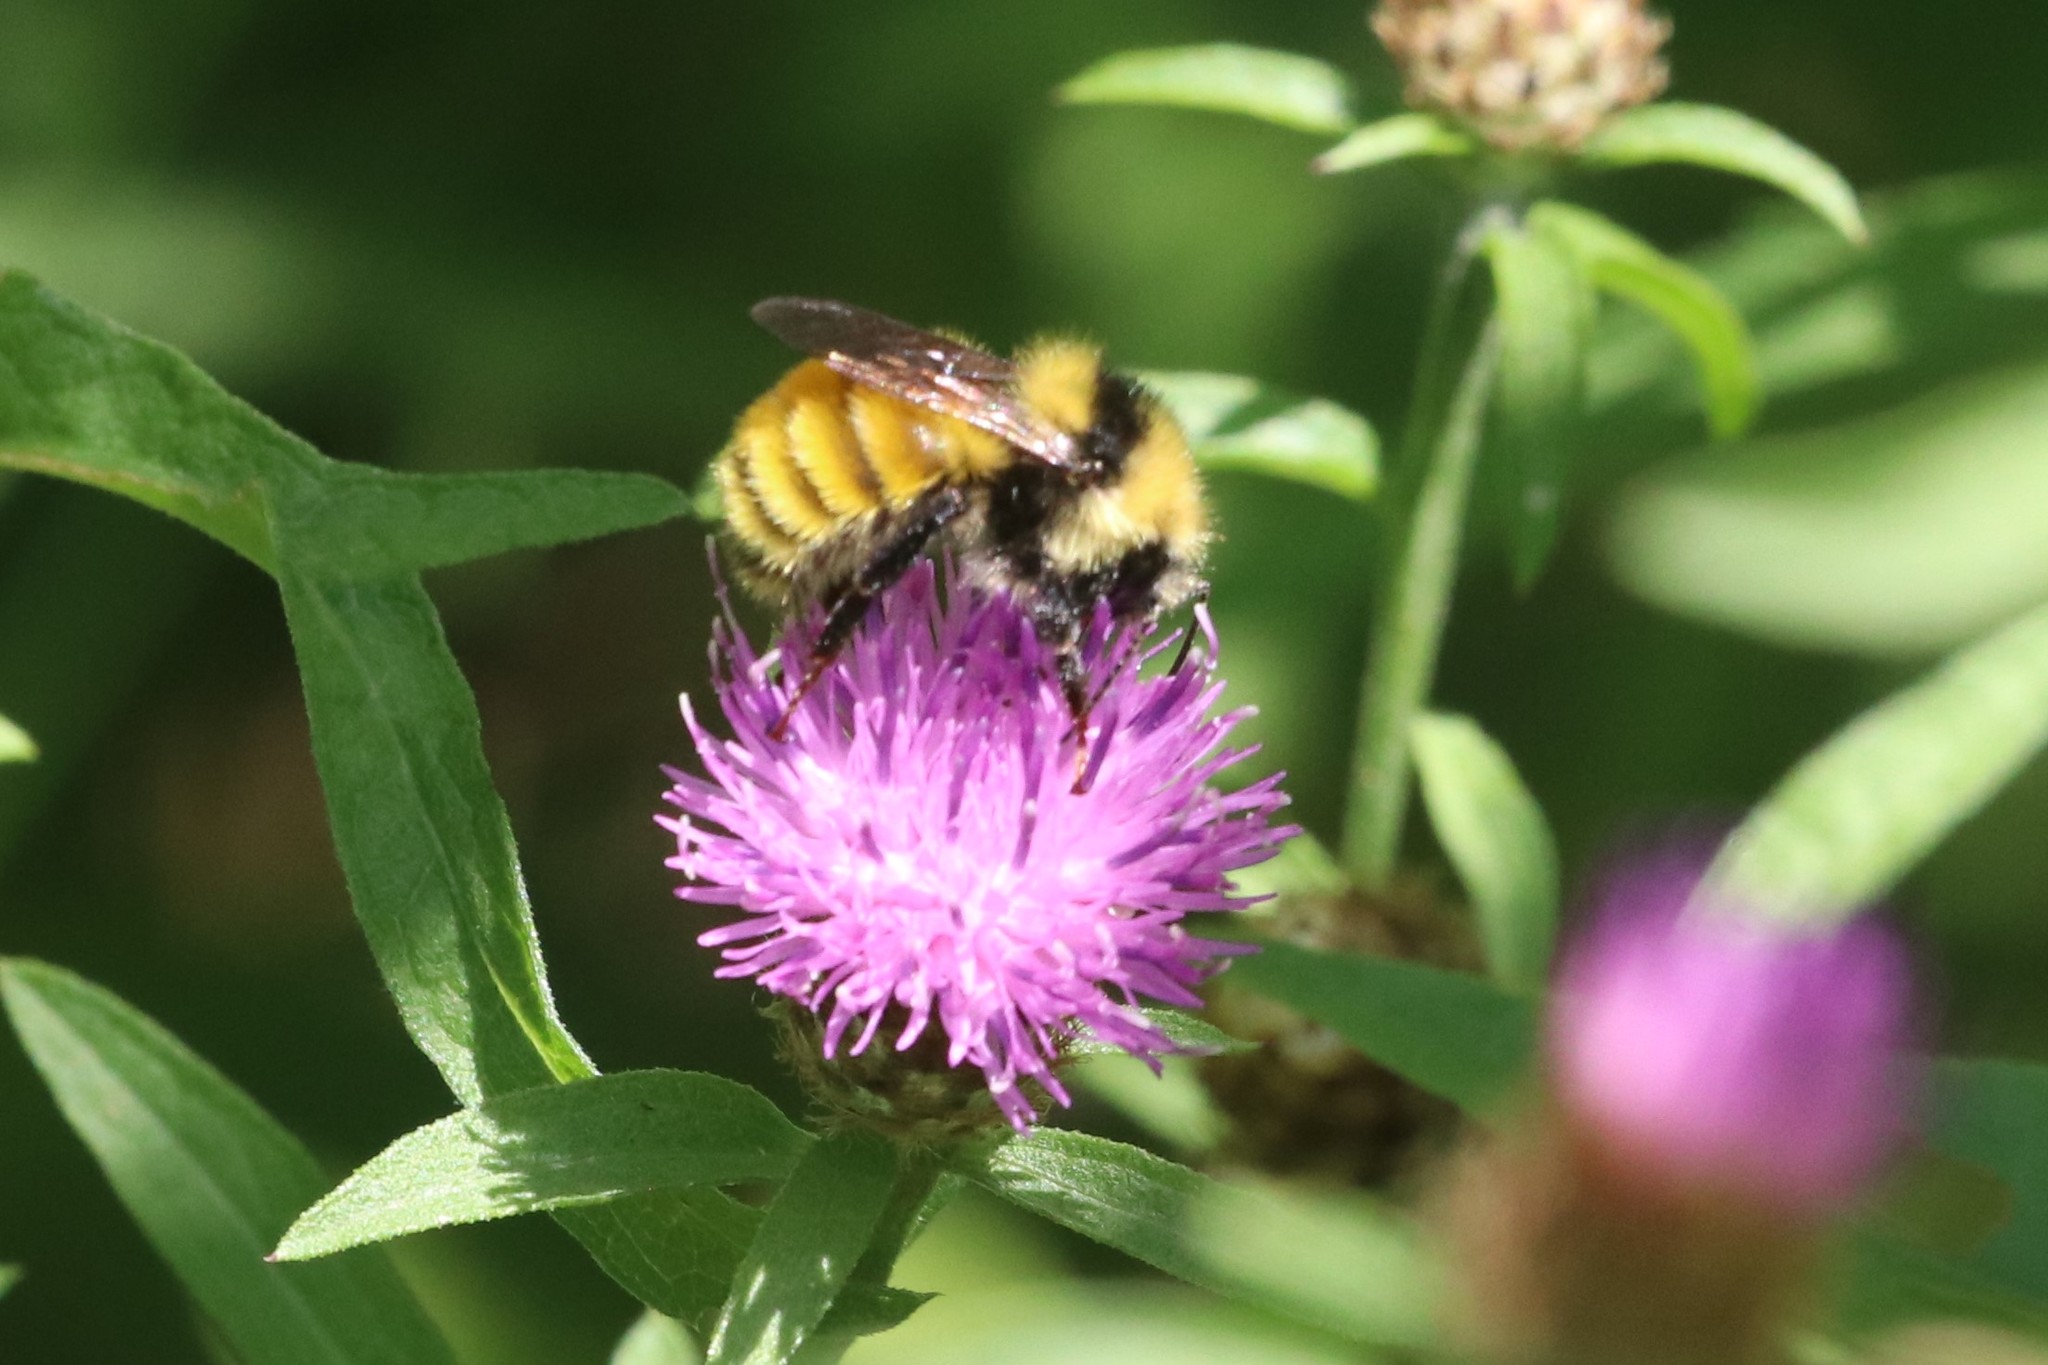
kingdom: Animalia
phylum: Arthropoda
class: Insecta
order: Hymenoptera
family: Apidae
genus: Bombus
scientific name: Bombus borealis
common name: Northern amber bumble bee
